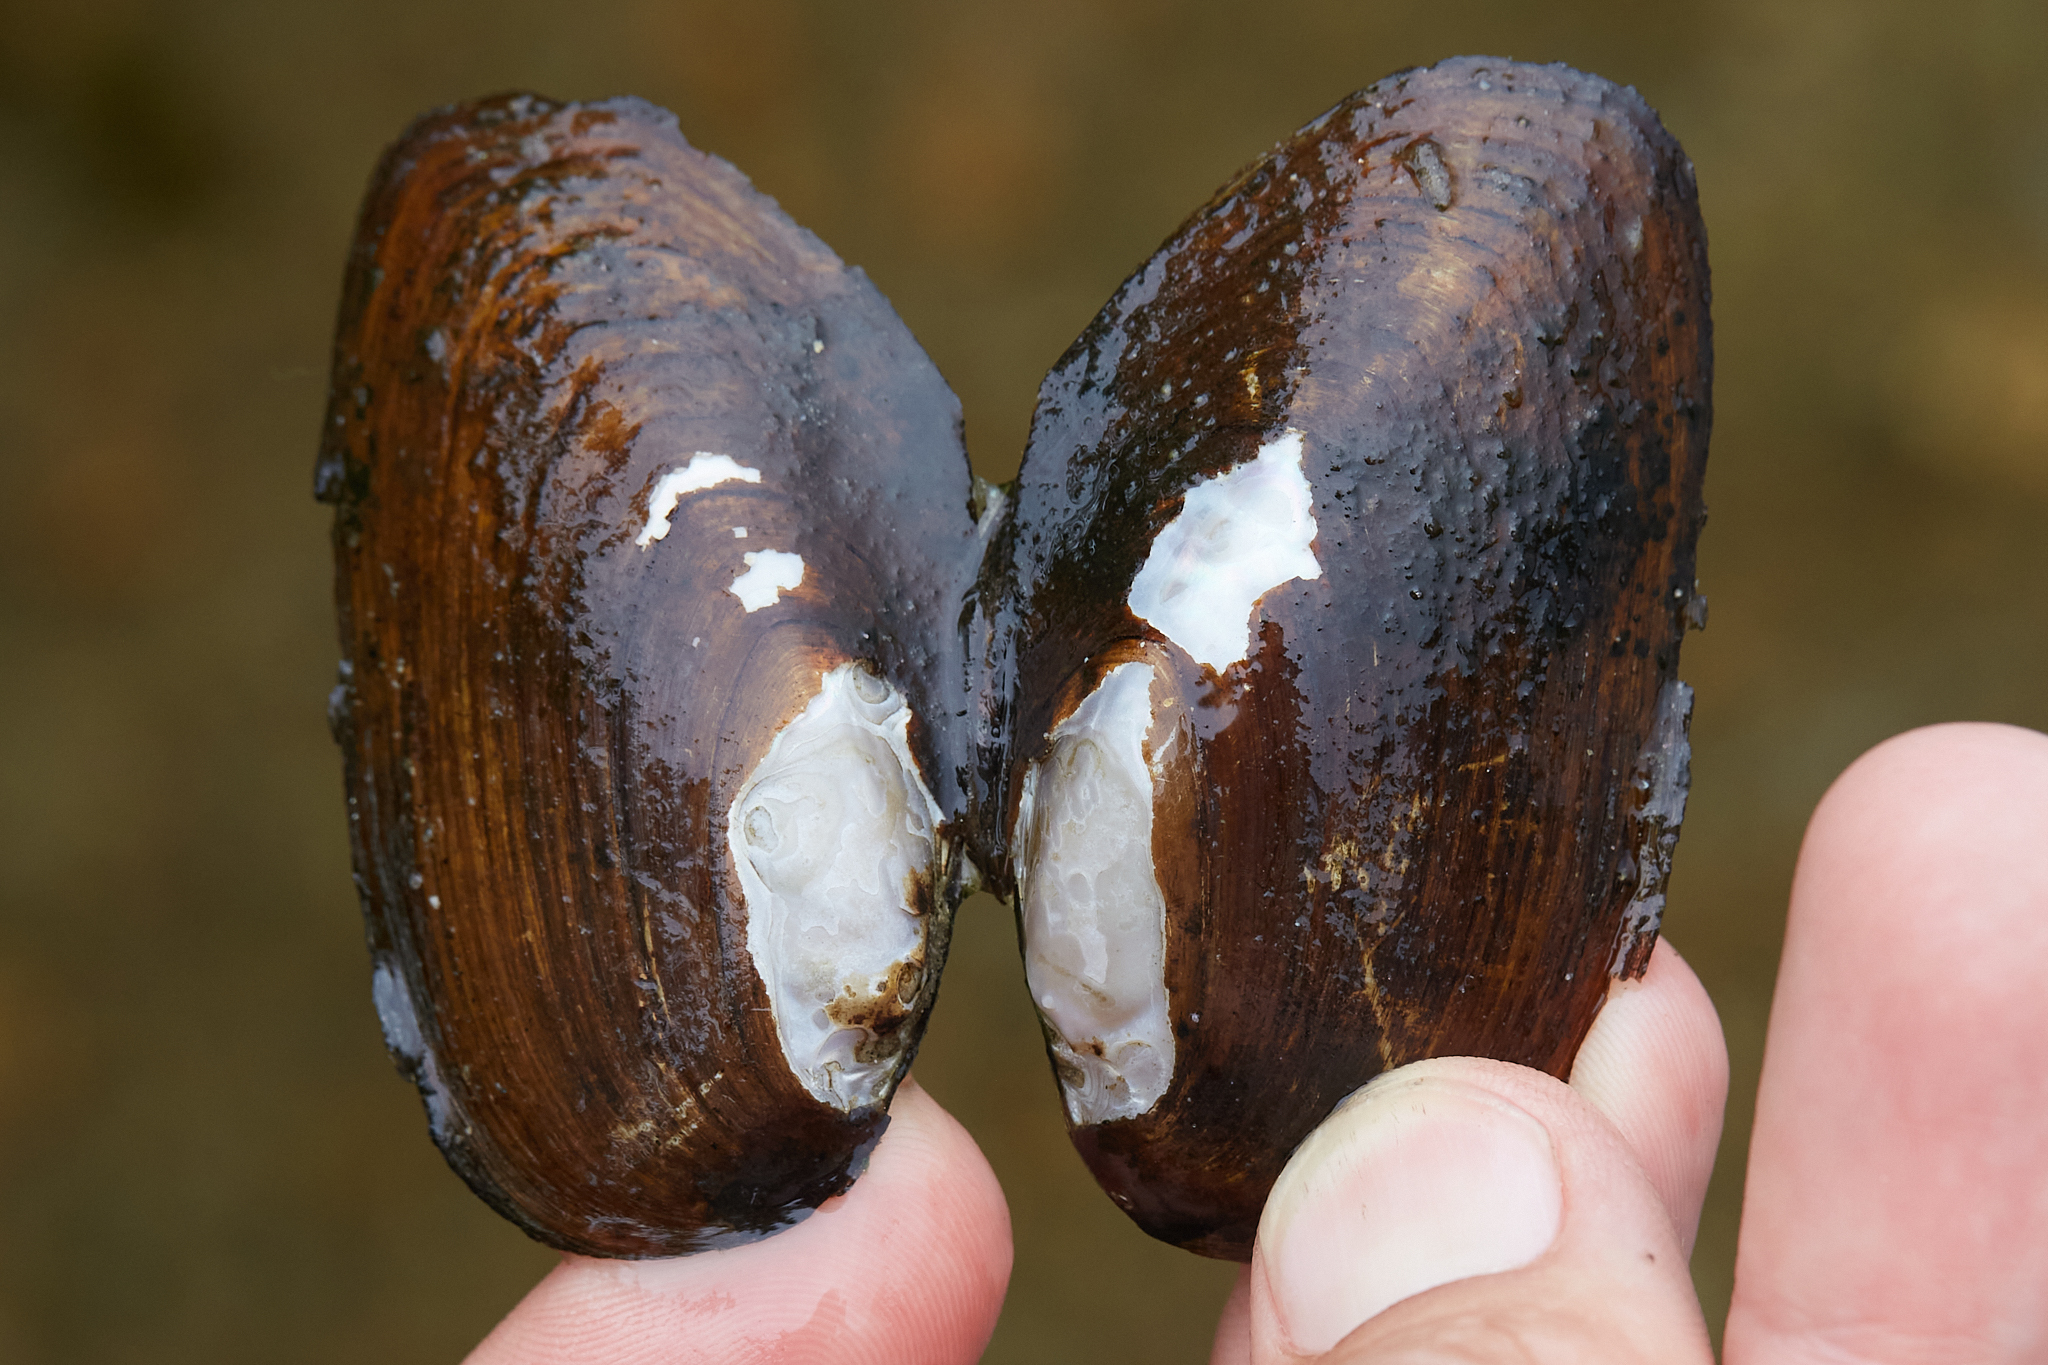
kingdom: Animalia
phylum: Mollusca
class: Bivalvia
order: Unionida
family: Unionidae
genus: Elliptio
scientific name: Elliptio complanata
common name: Eastern elliptio
